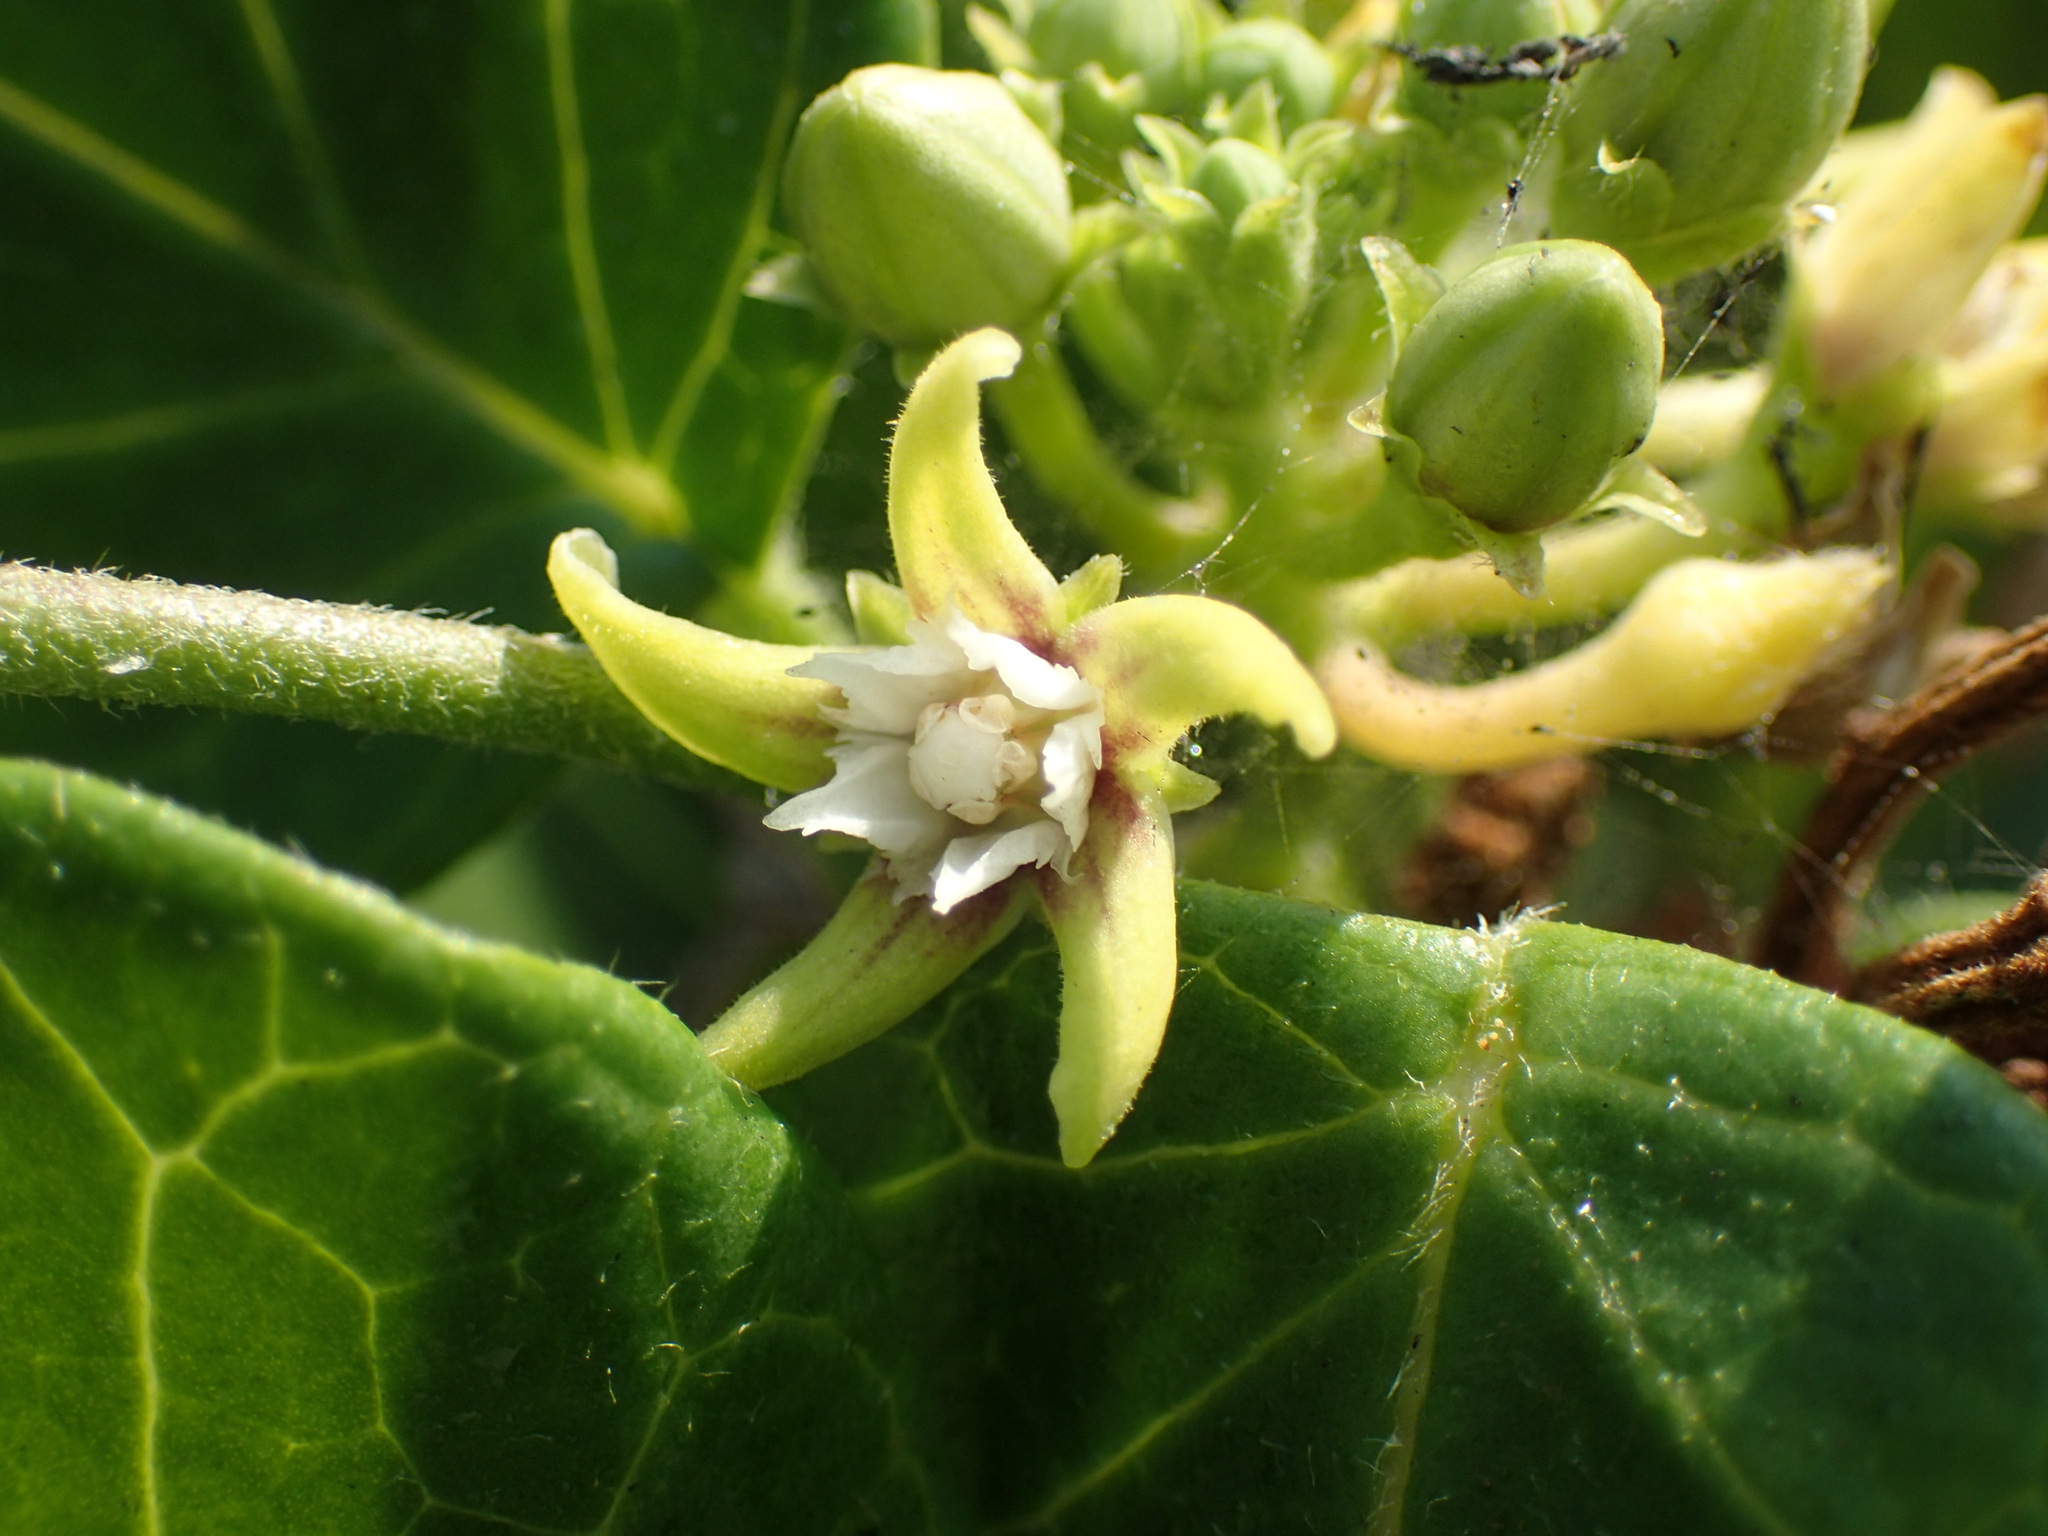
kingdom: Plantae
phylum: Tracheophyta
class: Magnoliopsida
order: Gentianales
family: Apocynaceae
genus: Cynanchum
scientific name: Cynanchum obtusifolium
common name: Monkey-rope
